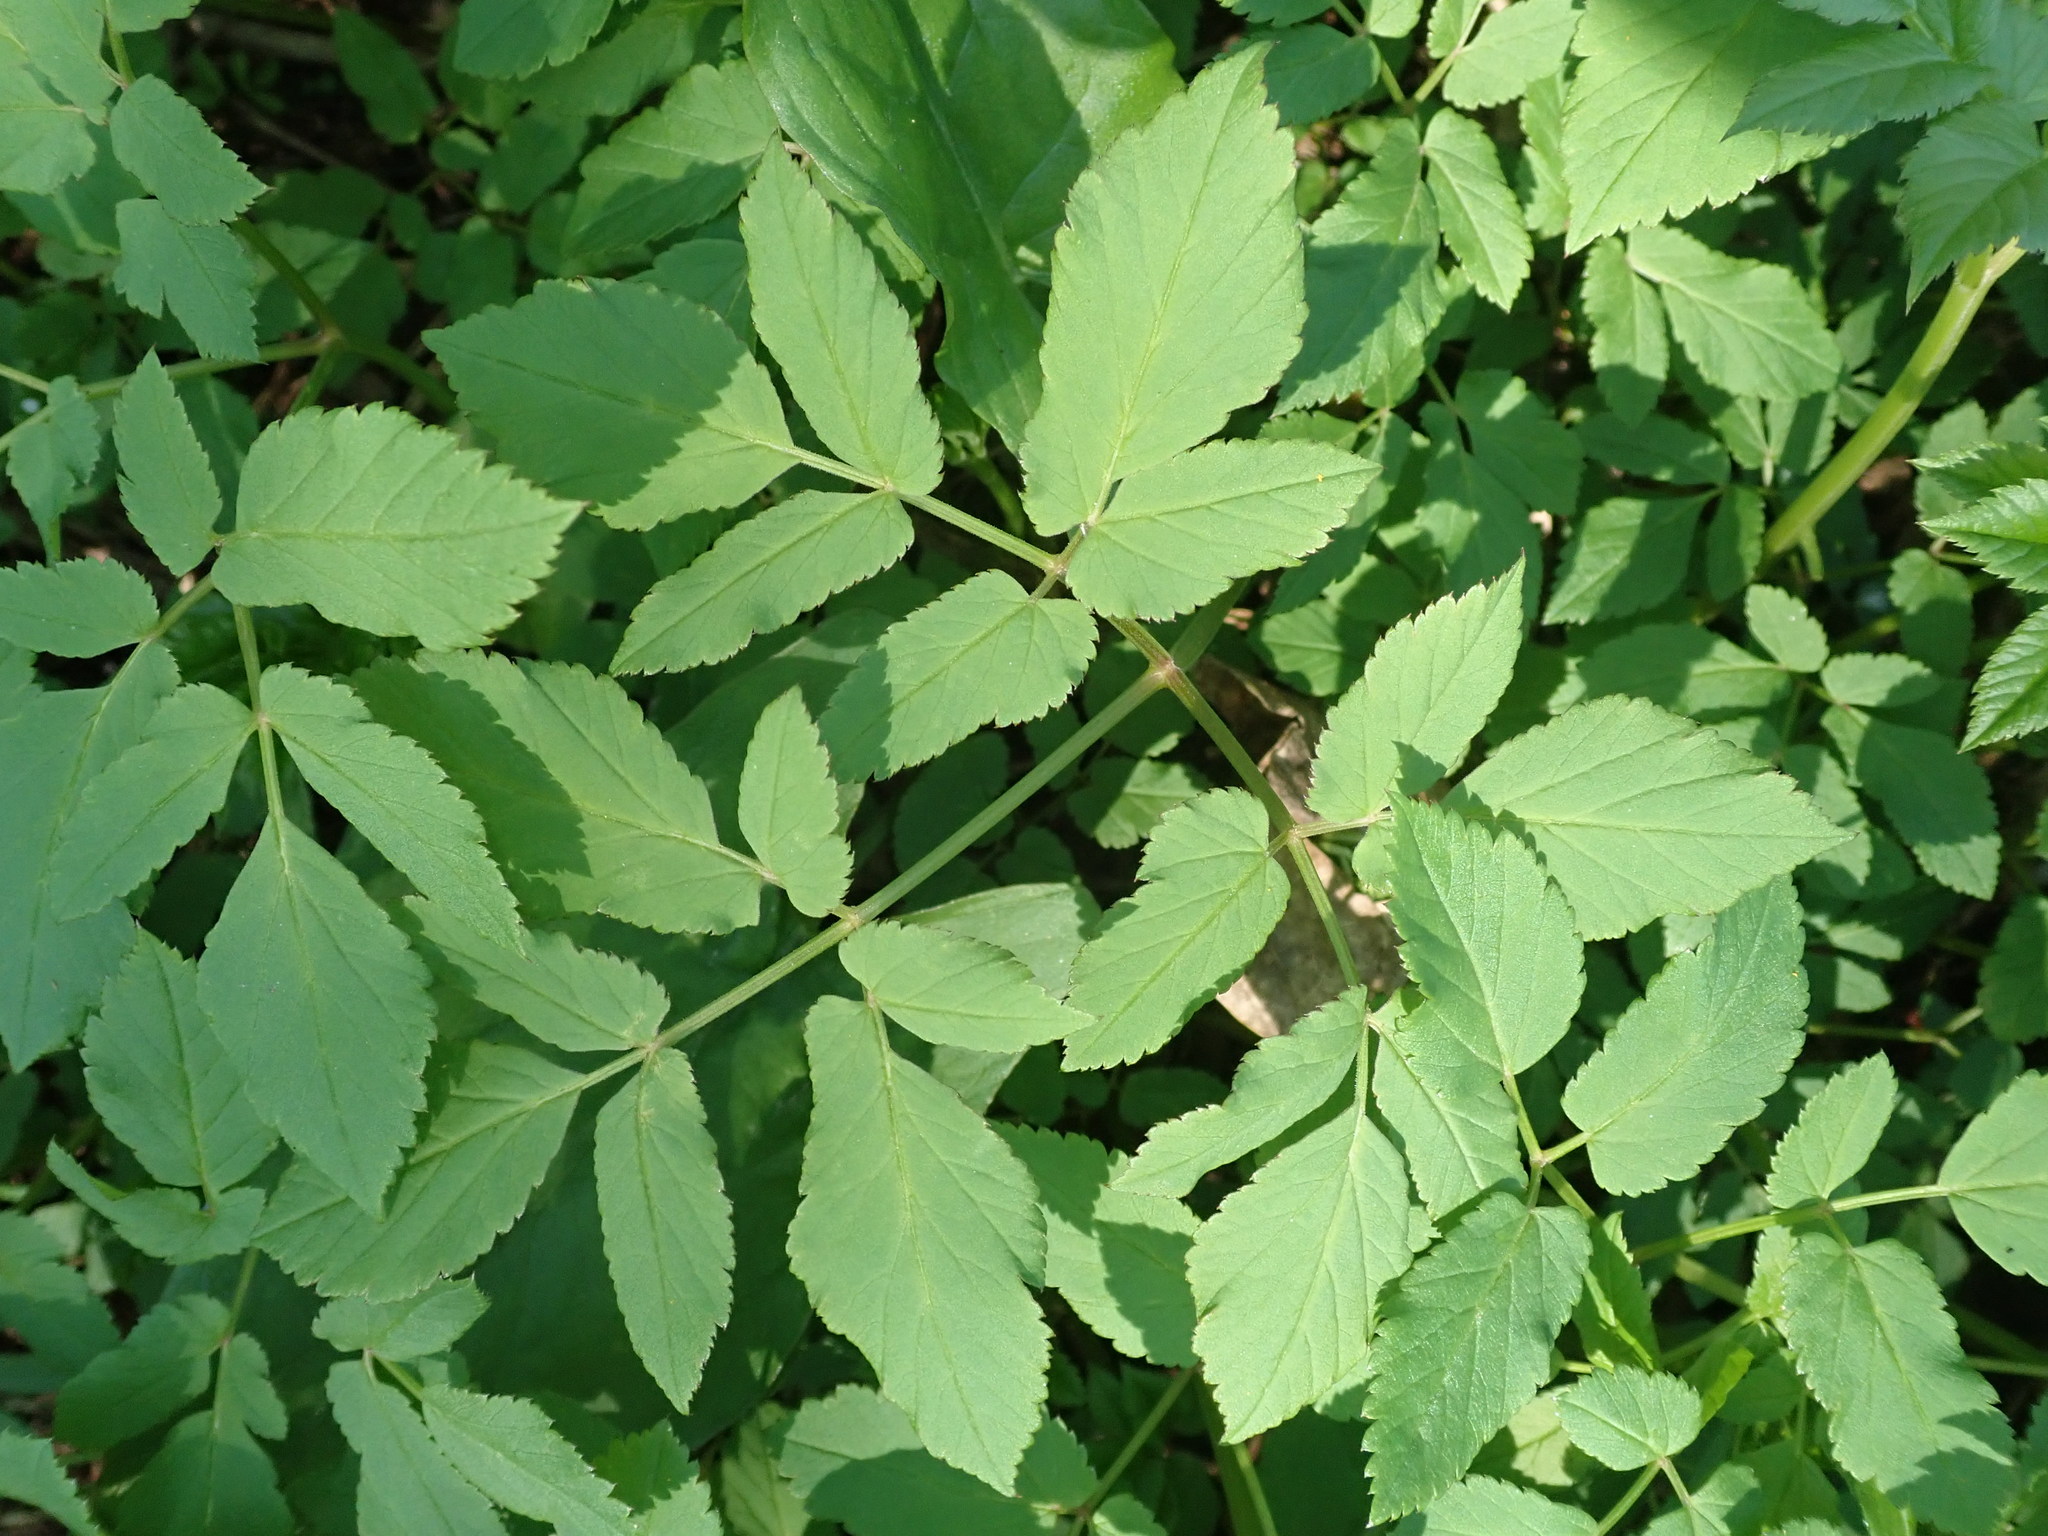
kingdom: Plantae
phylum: Tracheophyta
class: Magnoliopsida
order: Apiales
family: Apiaceae
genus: Aegopodium
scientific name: Aegopodium podagraria
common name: Ground-elder
